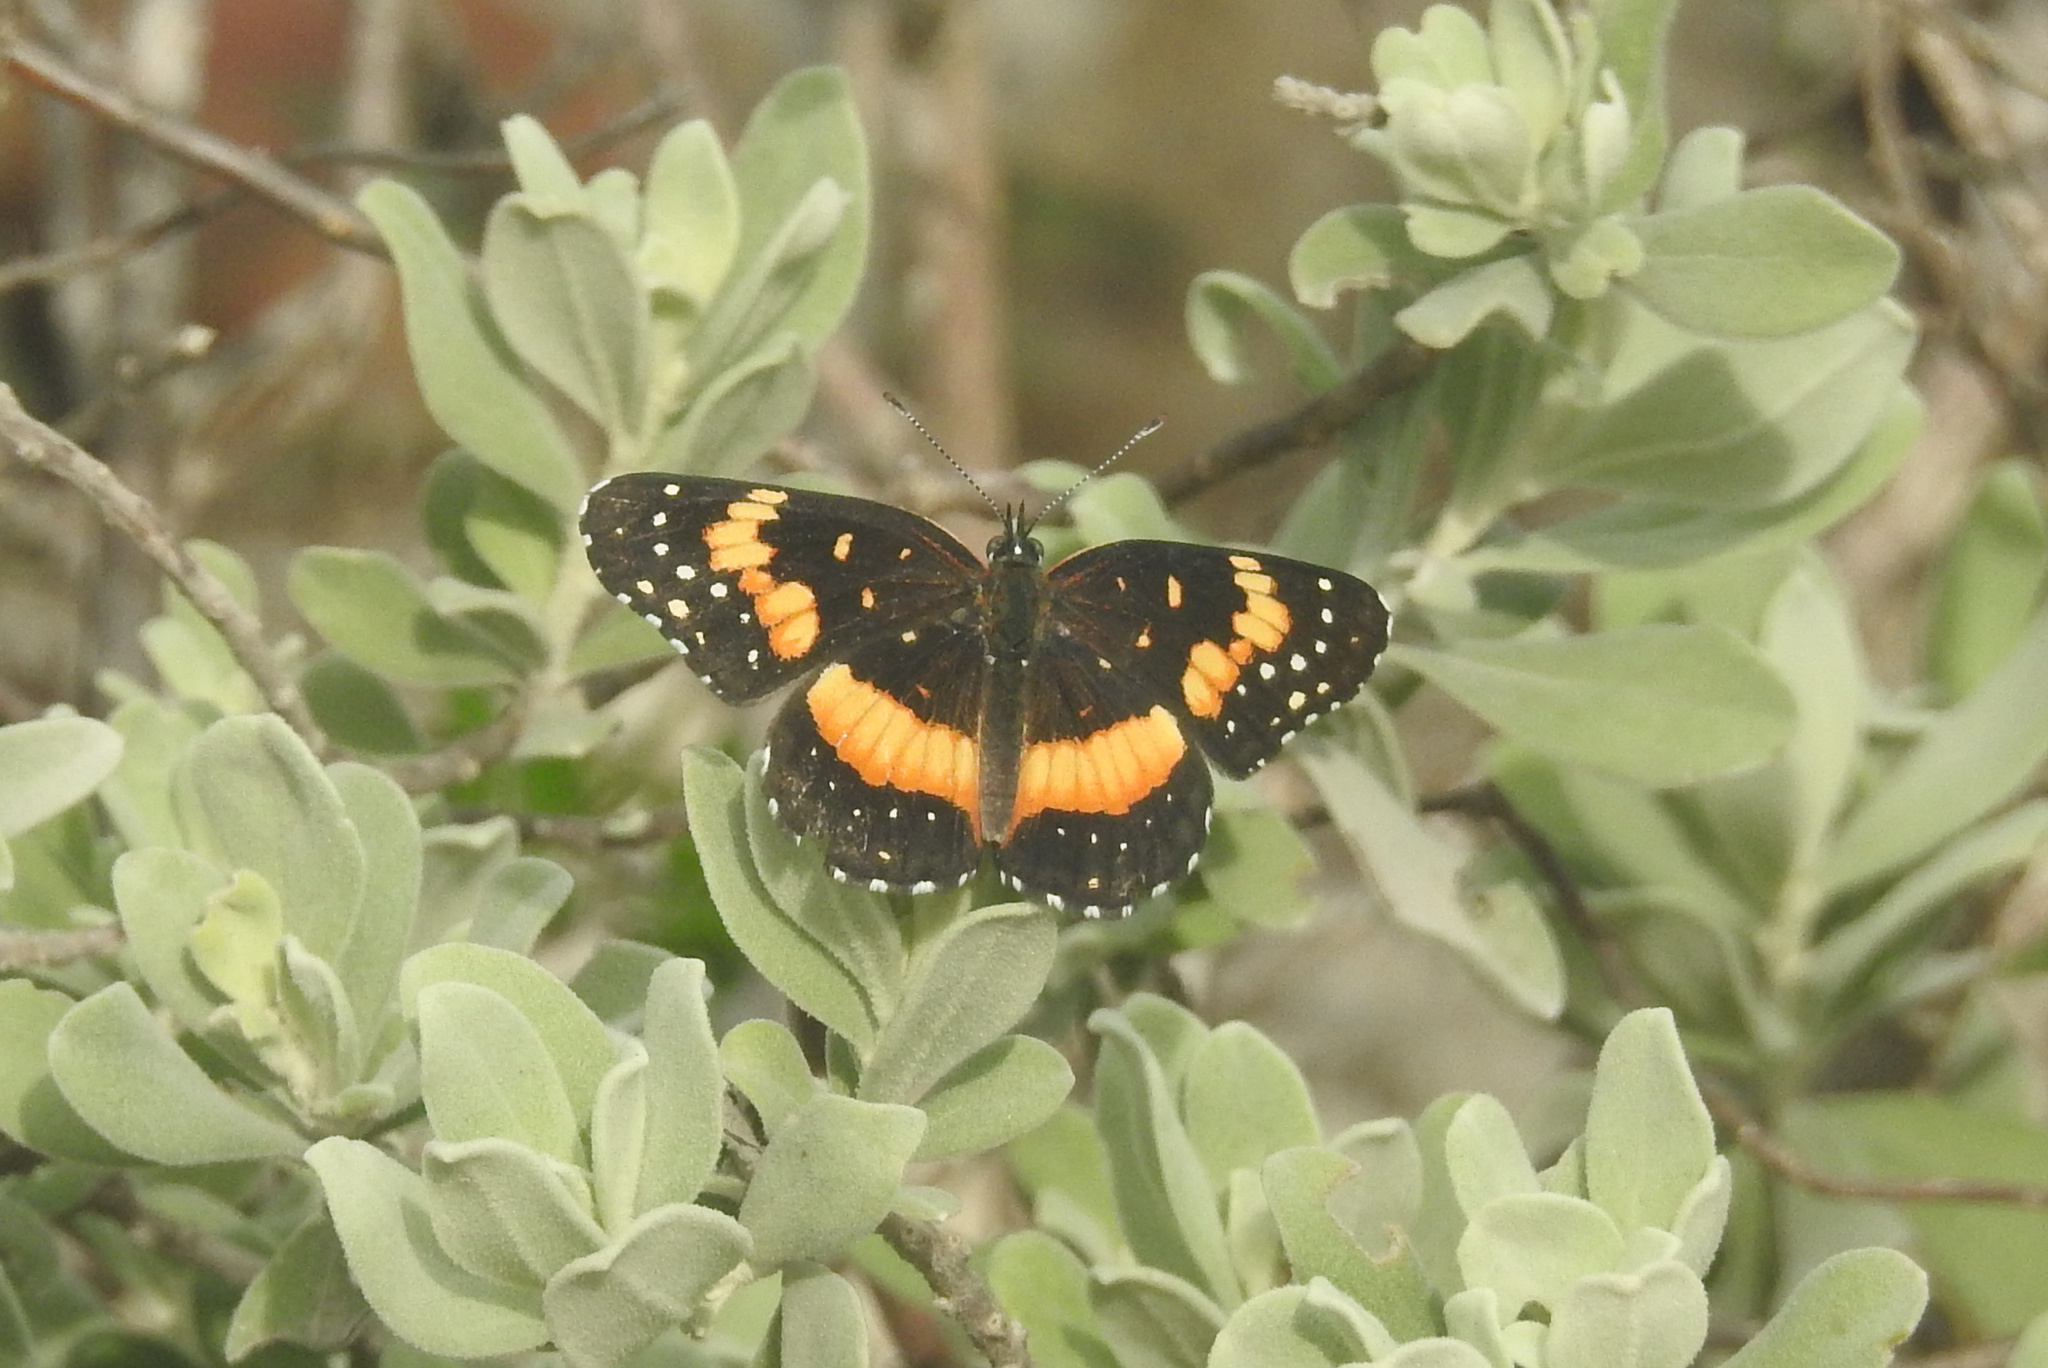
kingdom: Animalia
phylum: Arthropoda
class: Insecta
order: Lepidoptera
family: Nymphalidae
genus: Chlosyne
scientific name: Chlosyne lacinia
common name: Bordered patch
